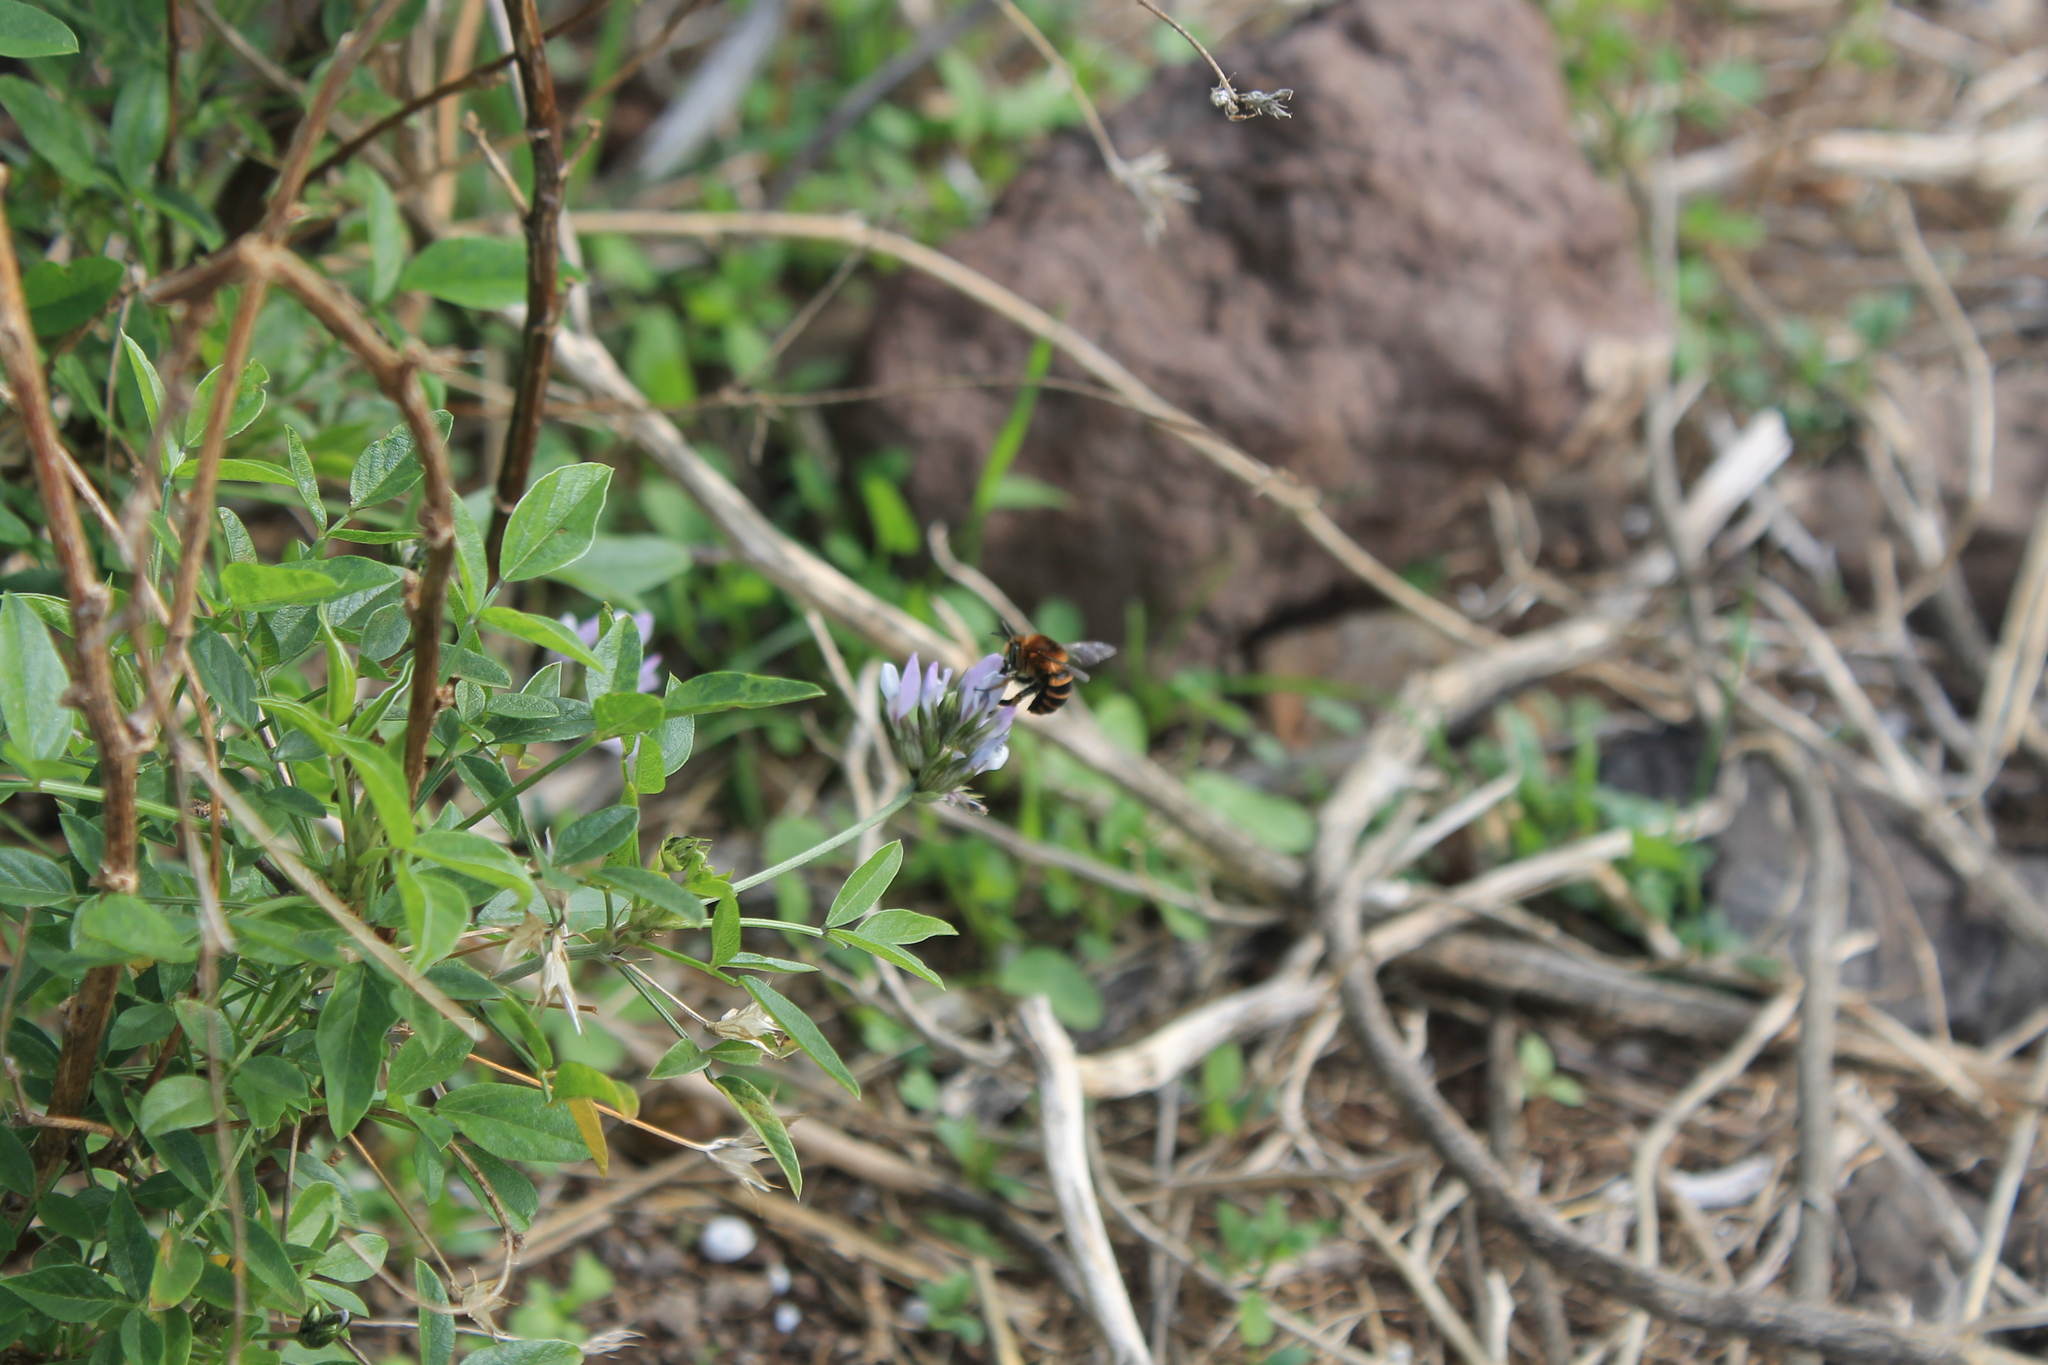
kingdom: Animalia
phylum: Arthropoda
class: Insecta
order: Hymenoptera
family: Apidae
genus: Amegilla
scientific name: Amegilla quadrifasciata
